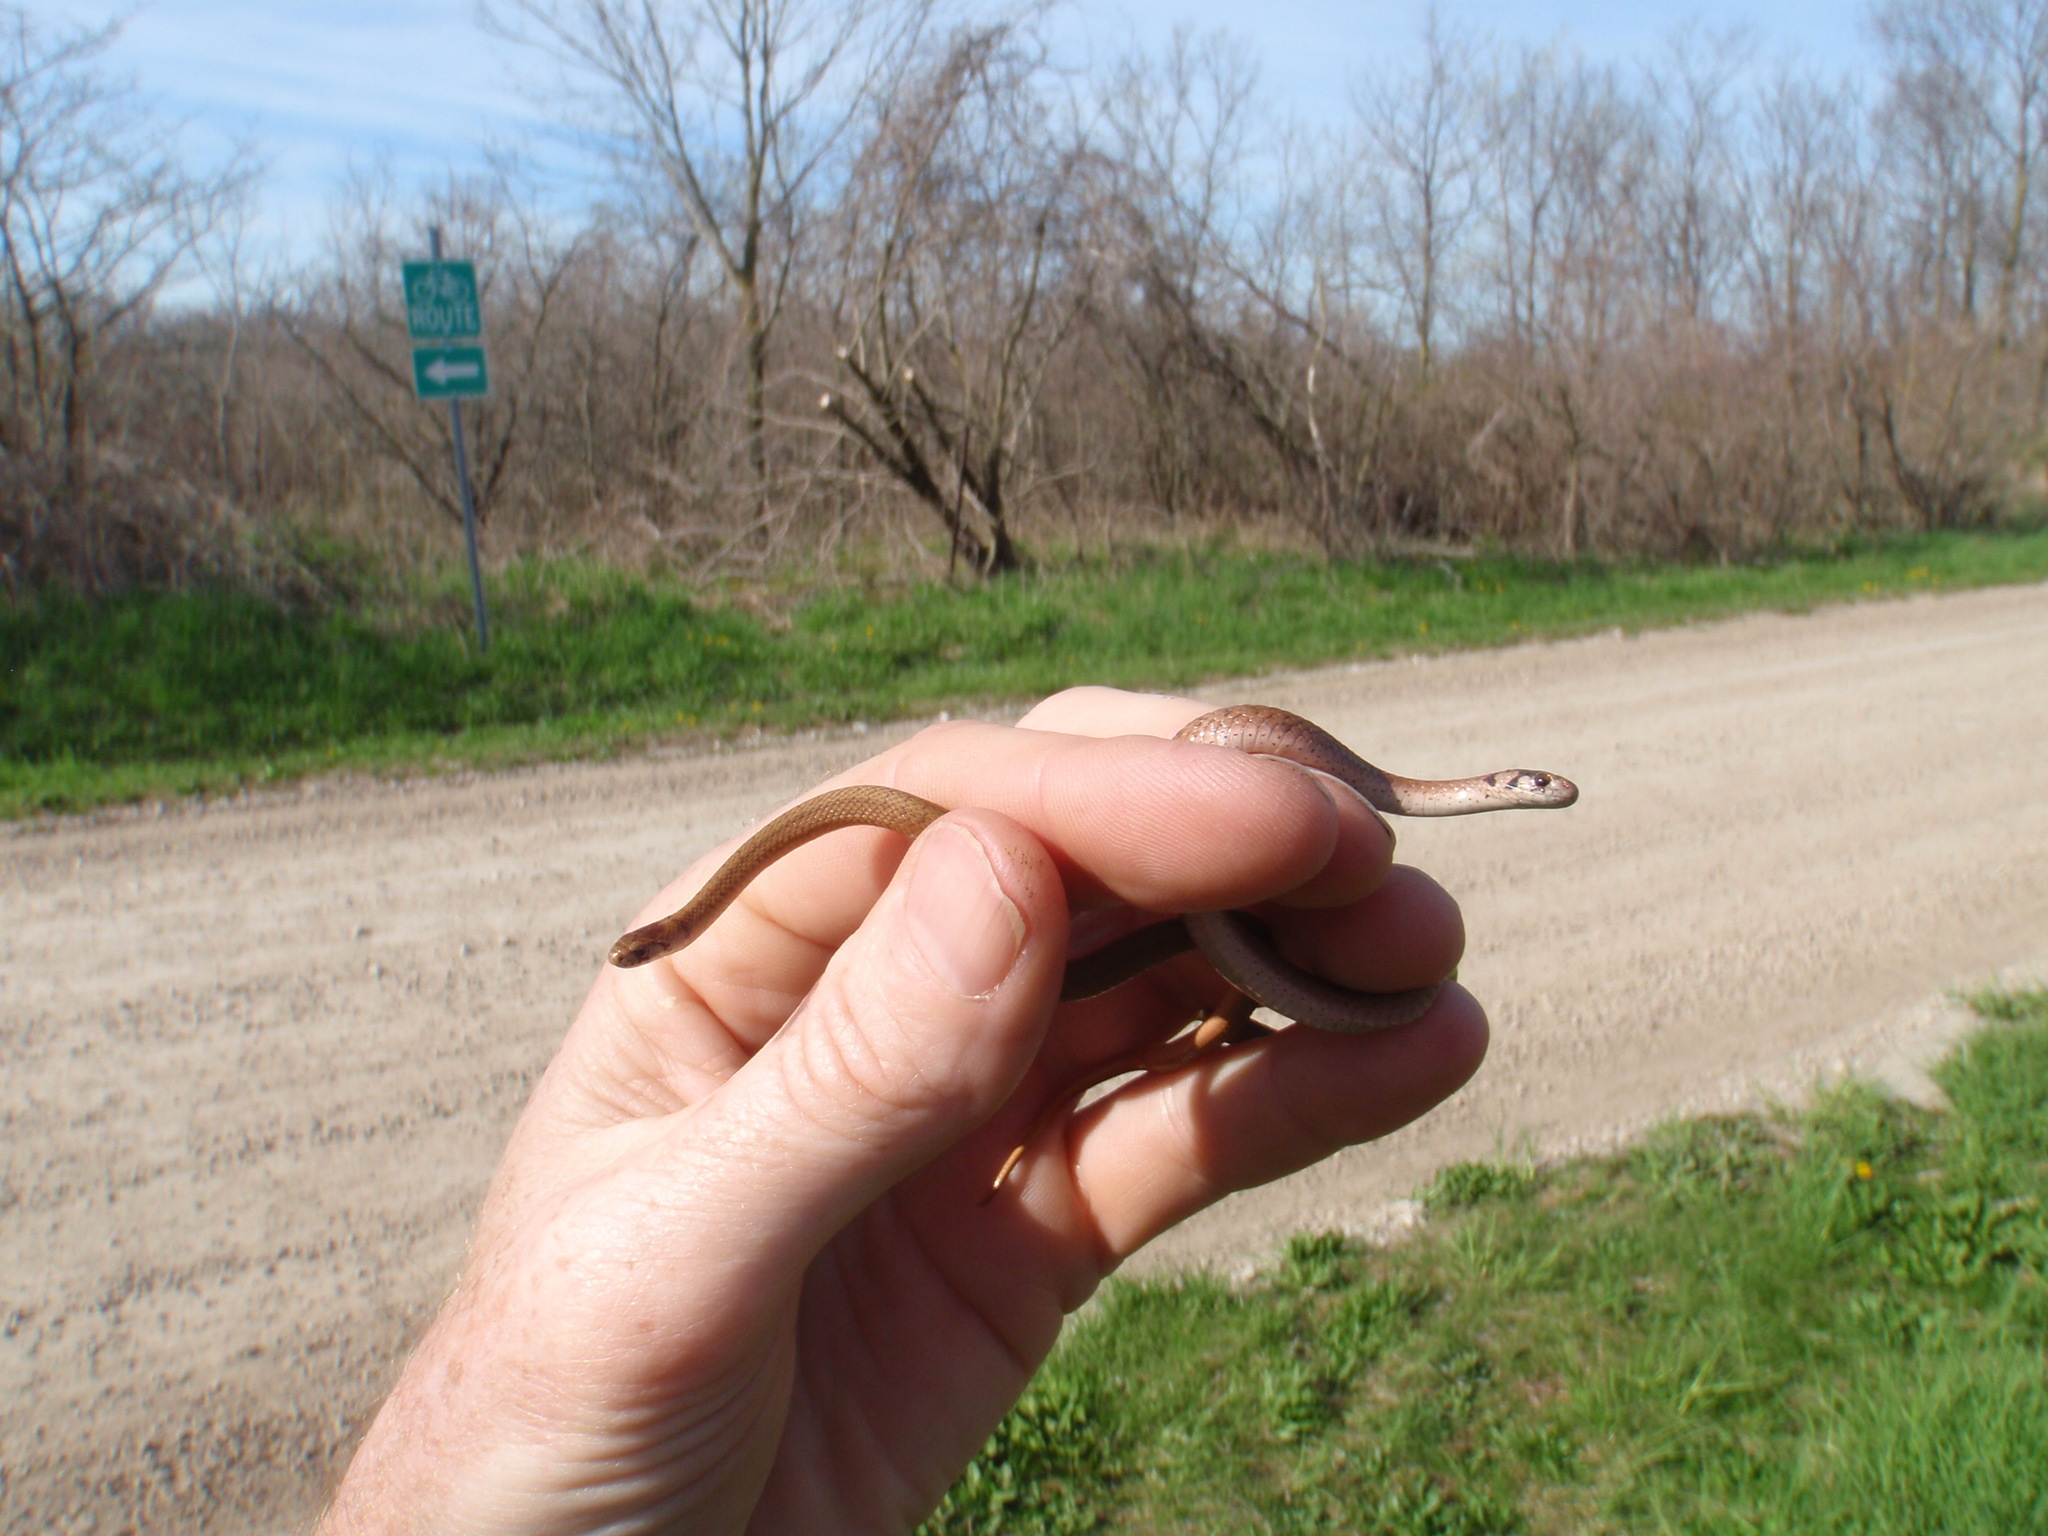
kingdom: Animalia
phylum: Chordata
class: Squamata
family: Colubridae
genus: Storeria
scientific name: Storeria dekayi
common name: (dekay’s) brown snake
